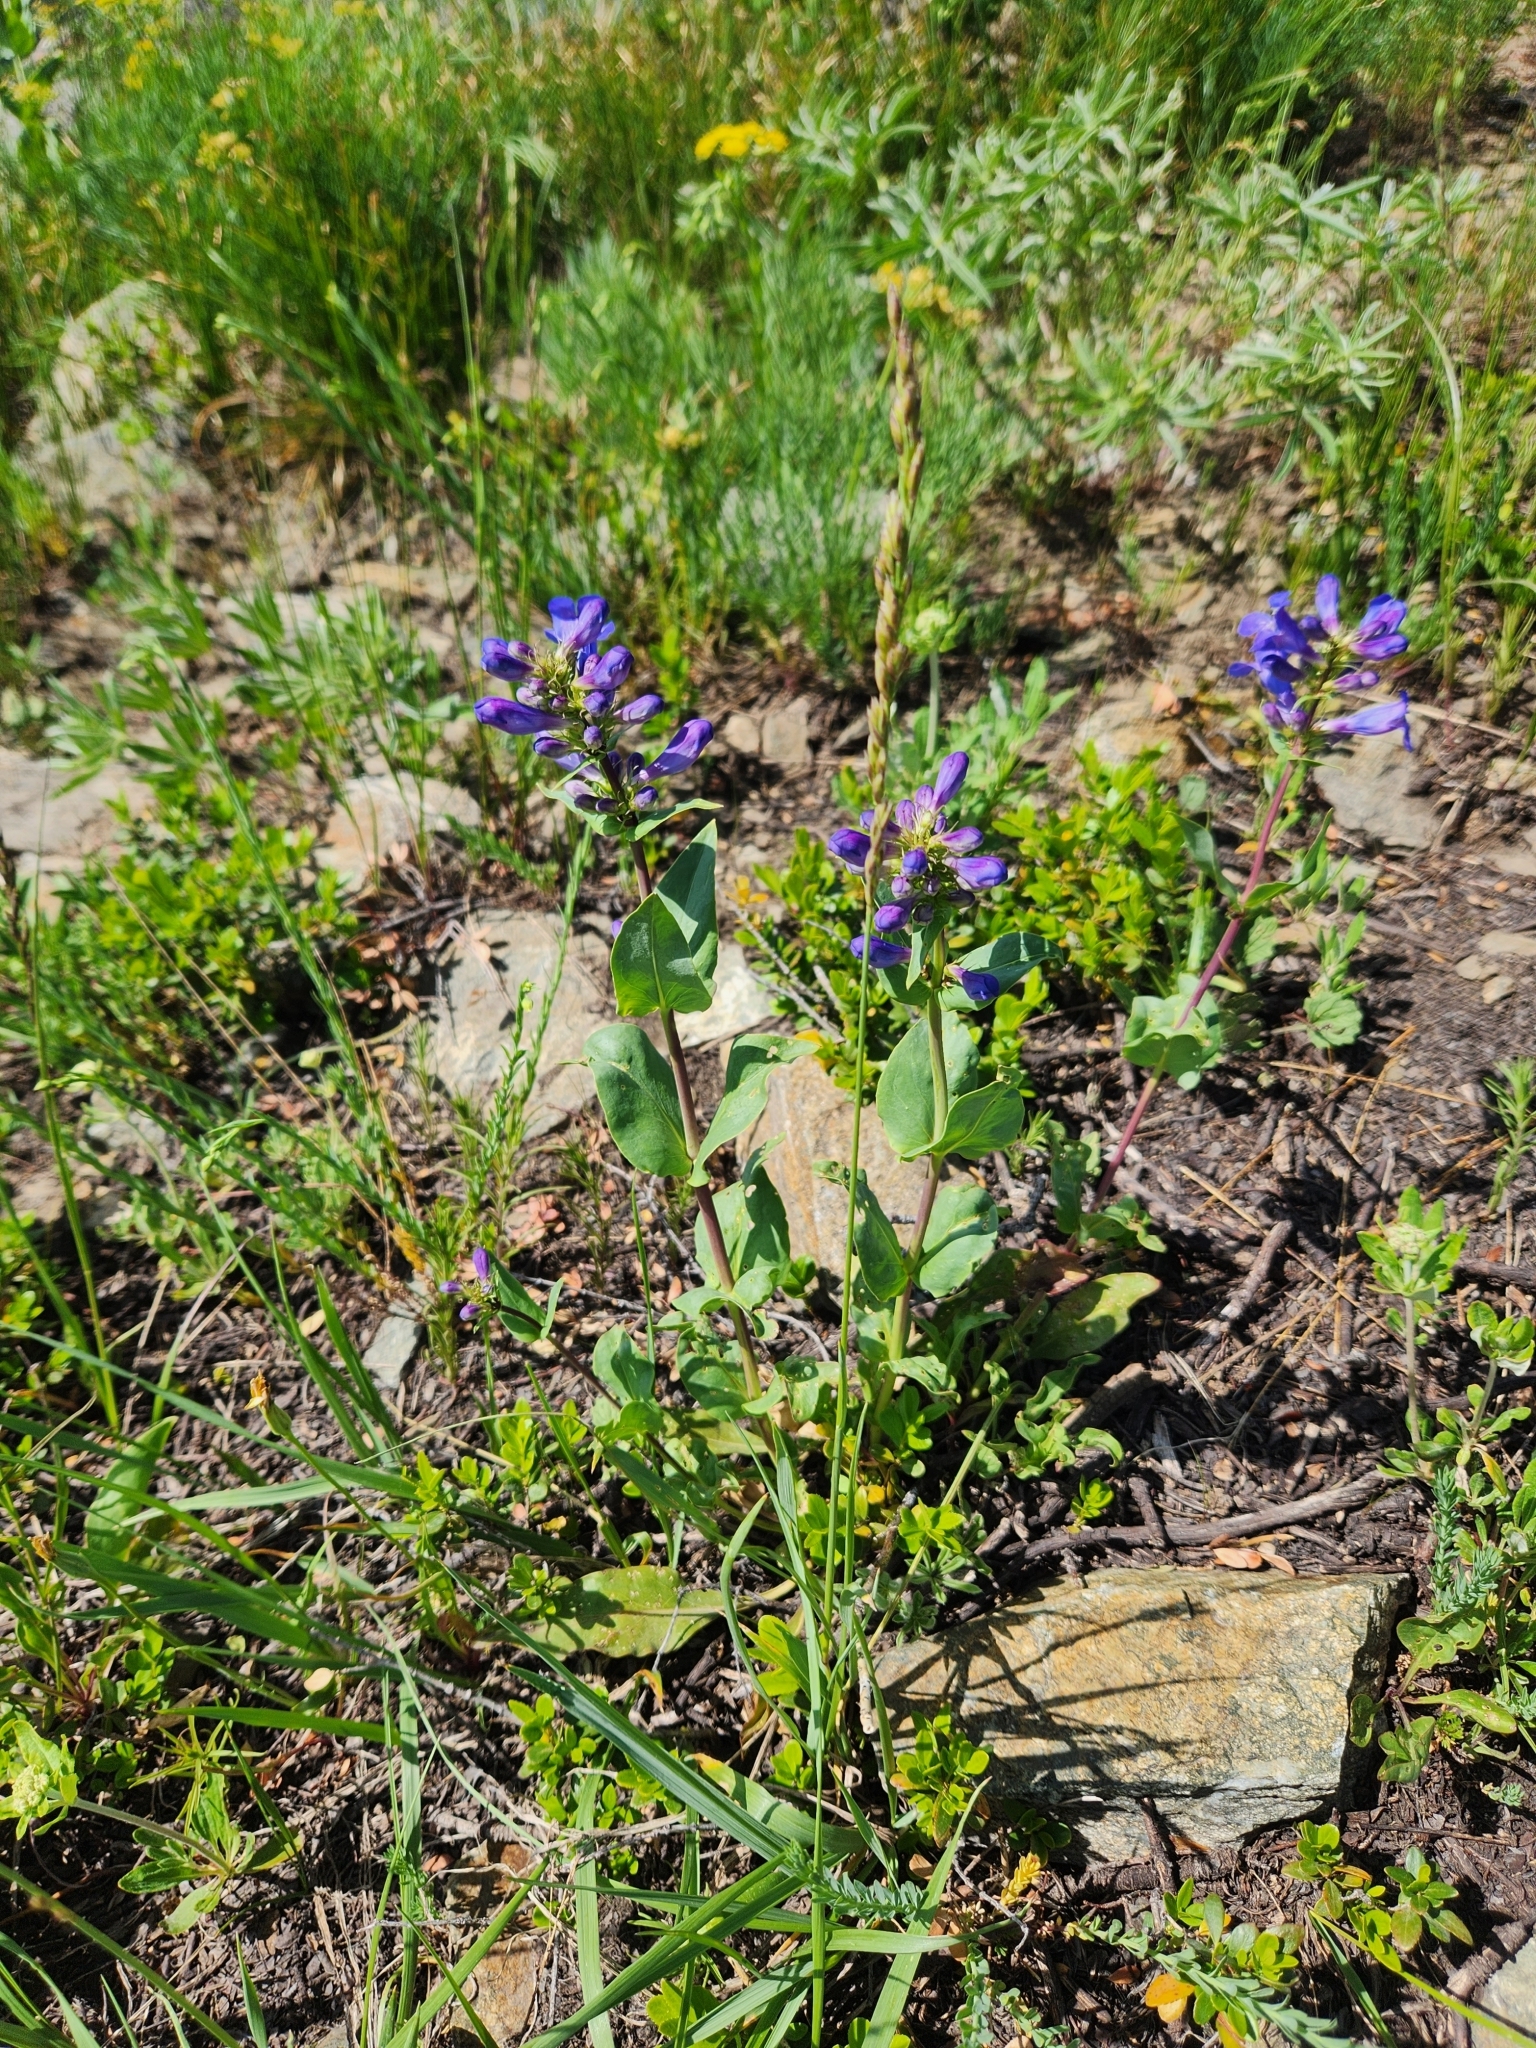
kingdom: Plantae
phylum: Tracheophyta
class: Magnoliopsida
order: Lamiales
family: Plantaginaceae
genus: Penstemon
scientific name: Penstemon cyananthus
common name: Wasatch penstemon
